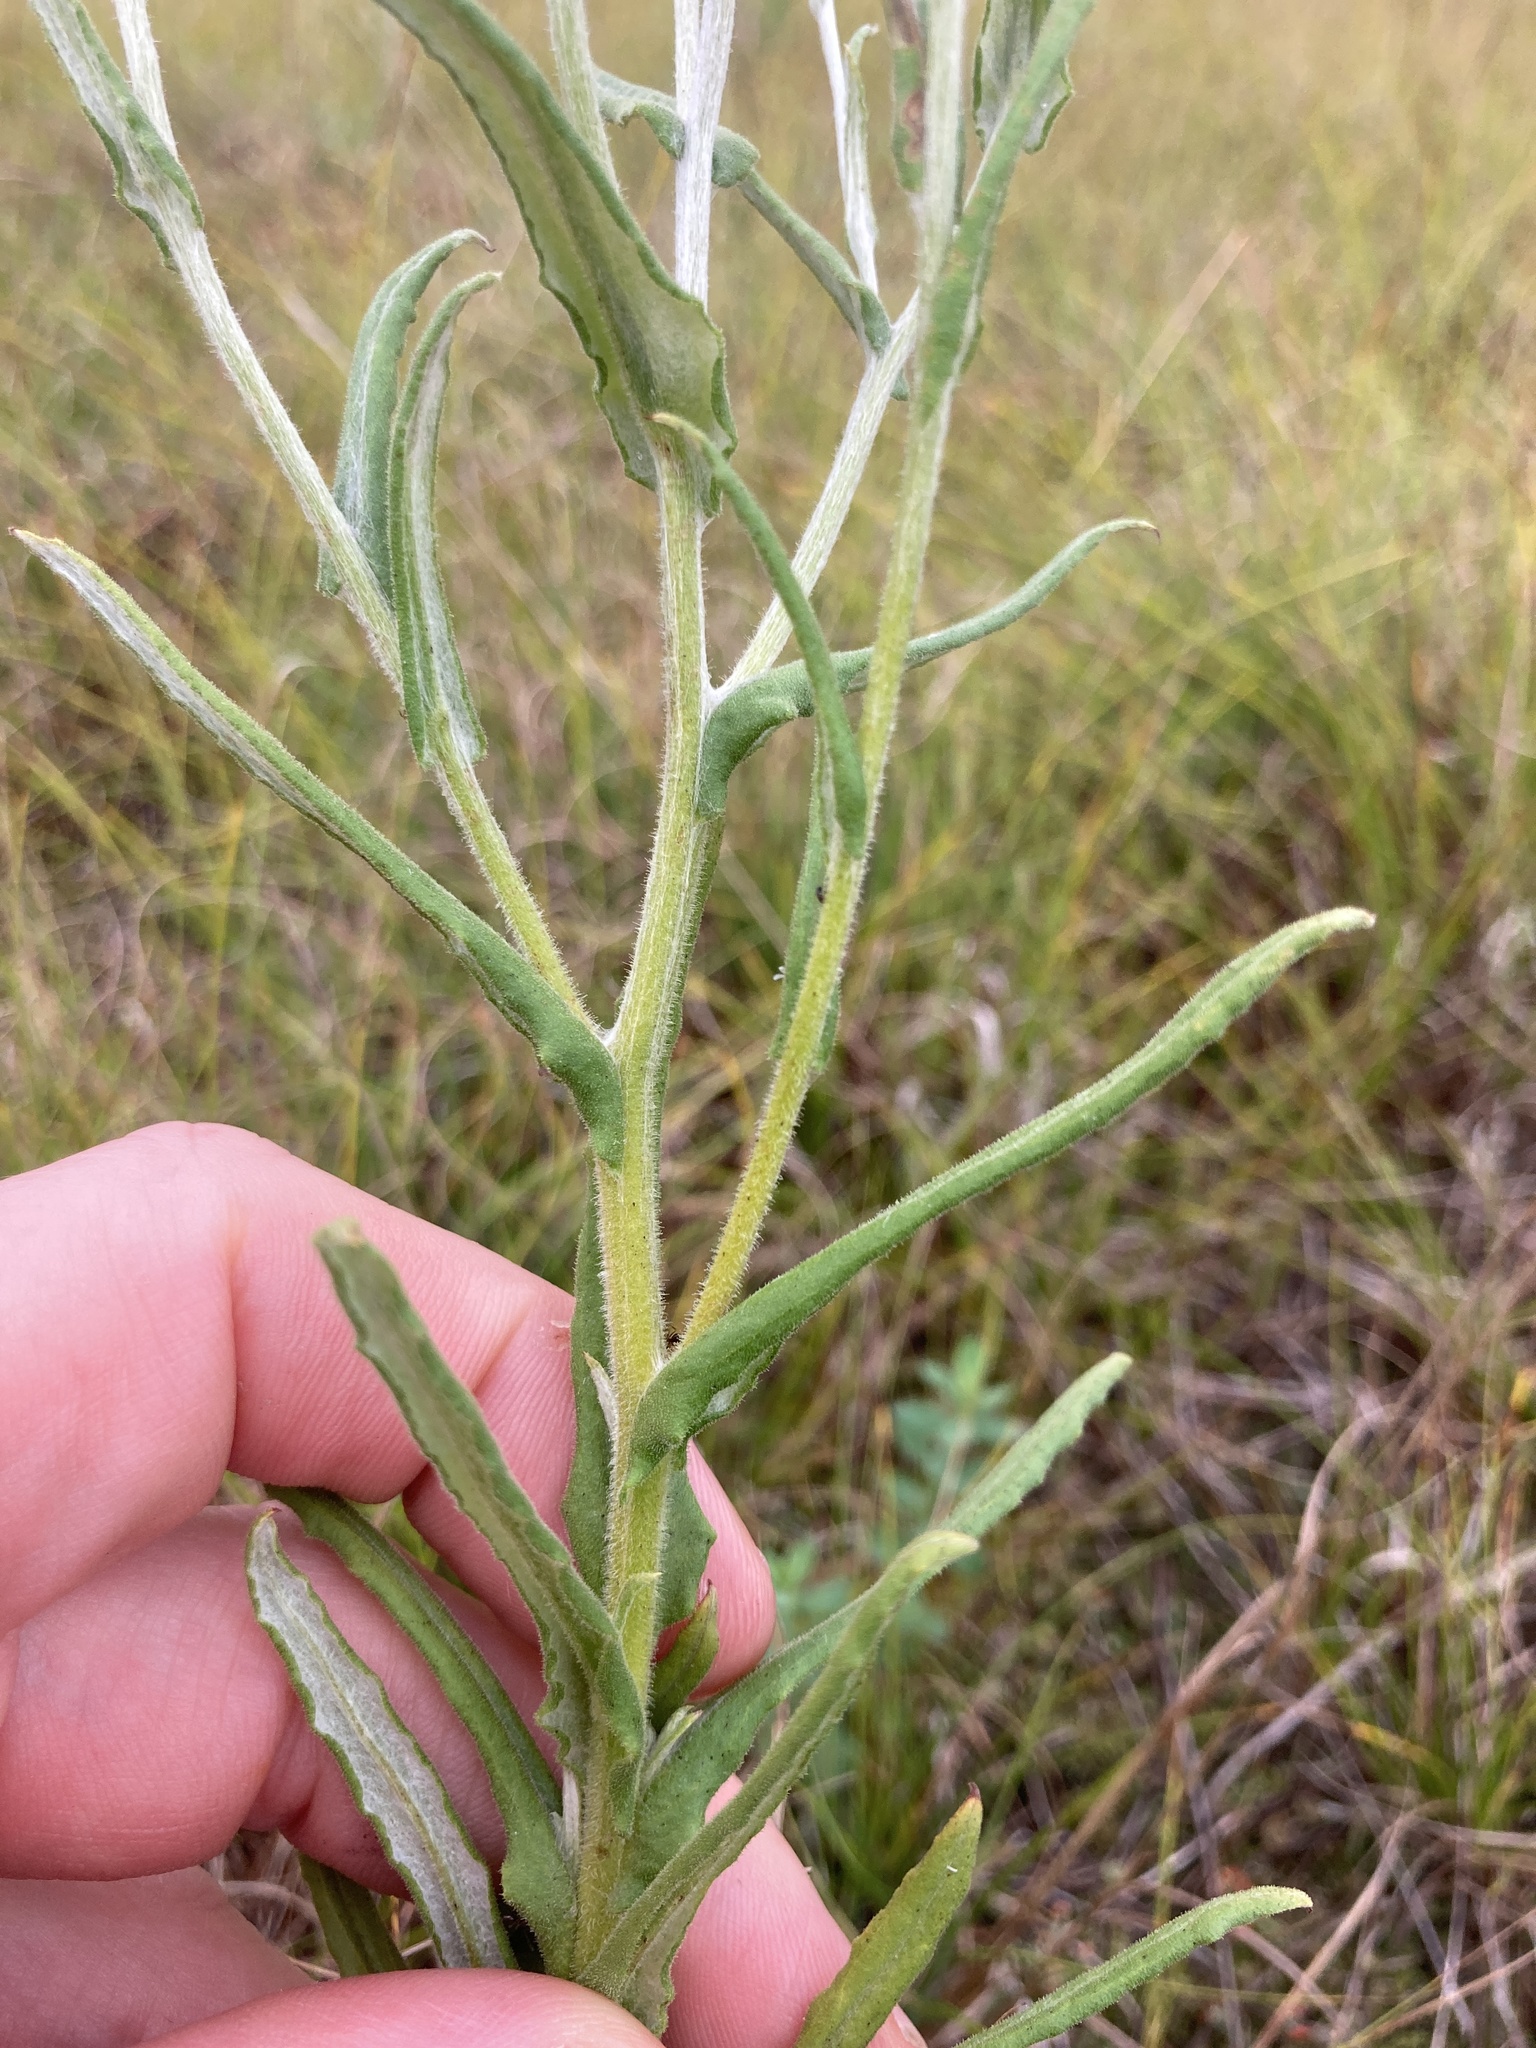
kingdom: Plantae
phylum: Tracheophyta
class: Magnoliopsida
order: Asterales
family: Asteraceae
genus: Pseudognaphalium
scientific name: Pseudognaphalium macounii
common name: Clammy cudweed
